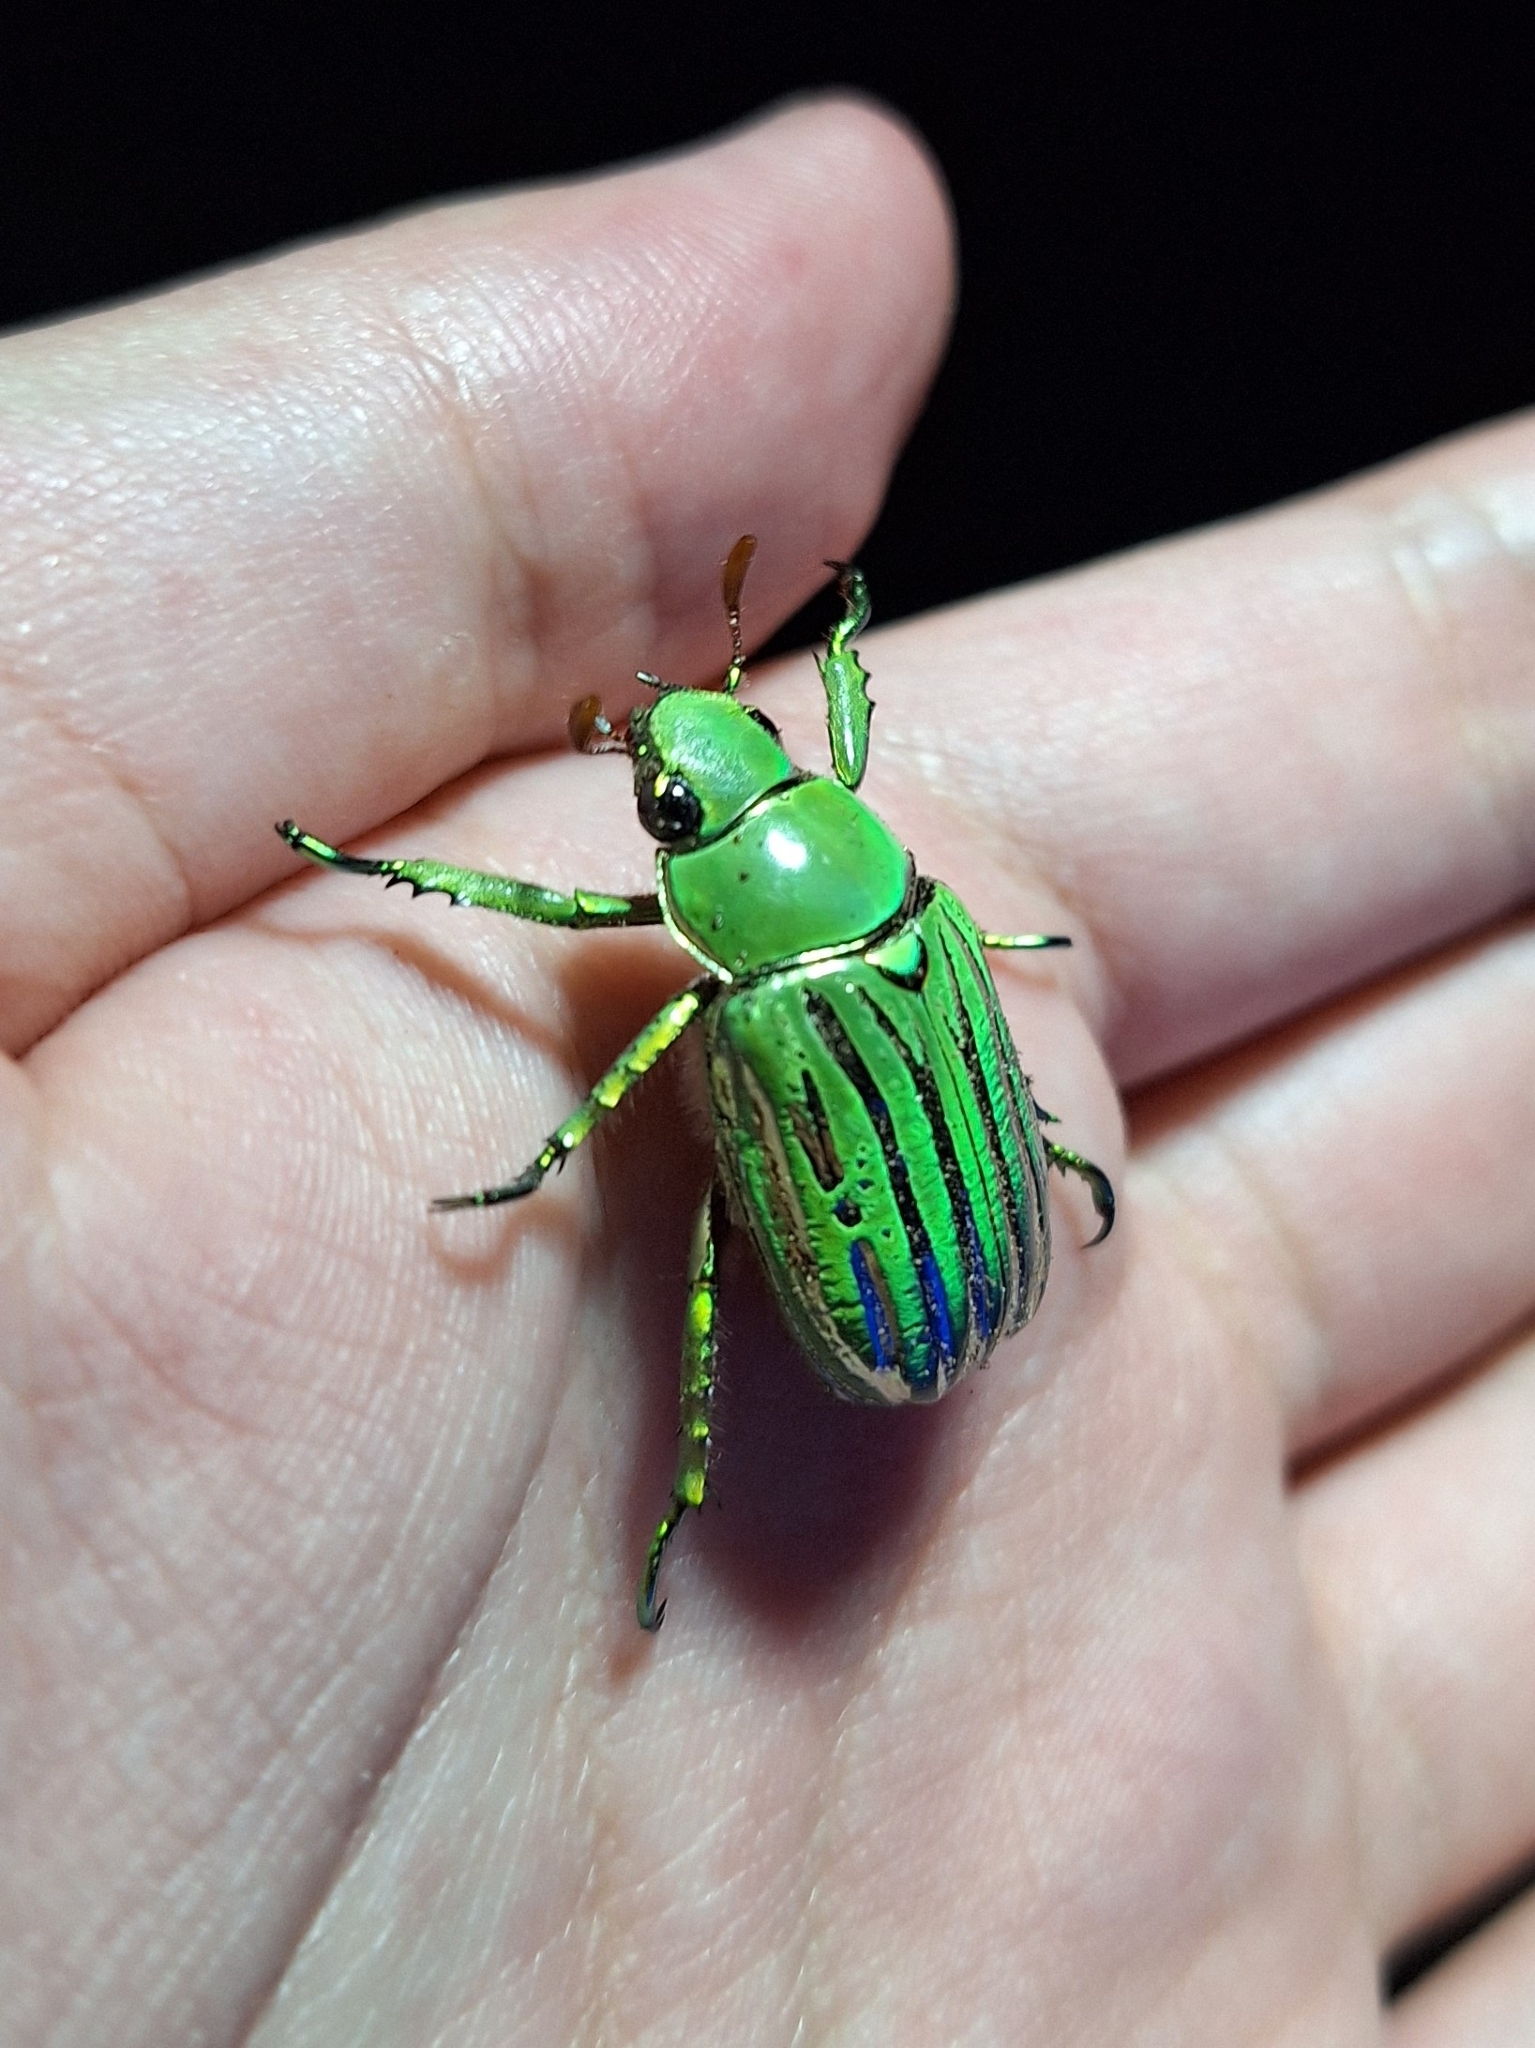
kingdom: Animalia
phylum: Arthropoda
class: Insecta
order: Coleoptera
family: Scarabaeidae
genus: Chrysina
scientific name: Chrysina gloriosa
